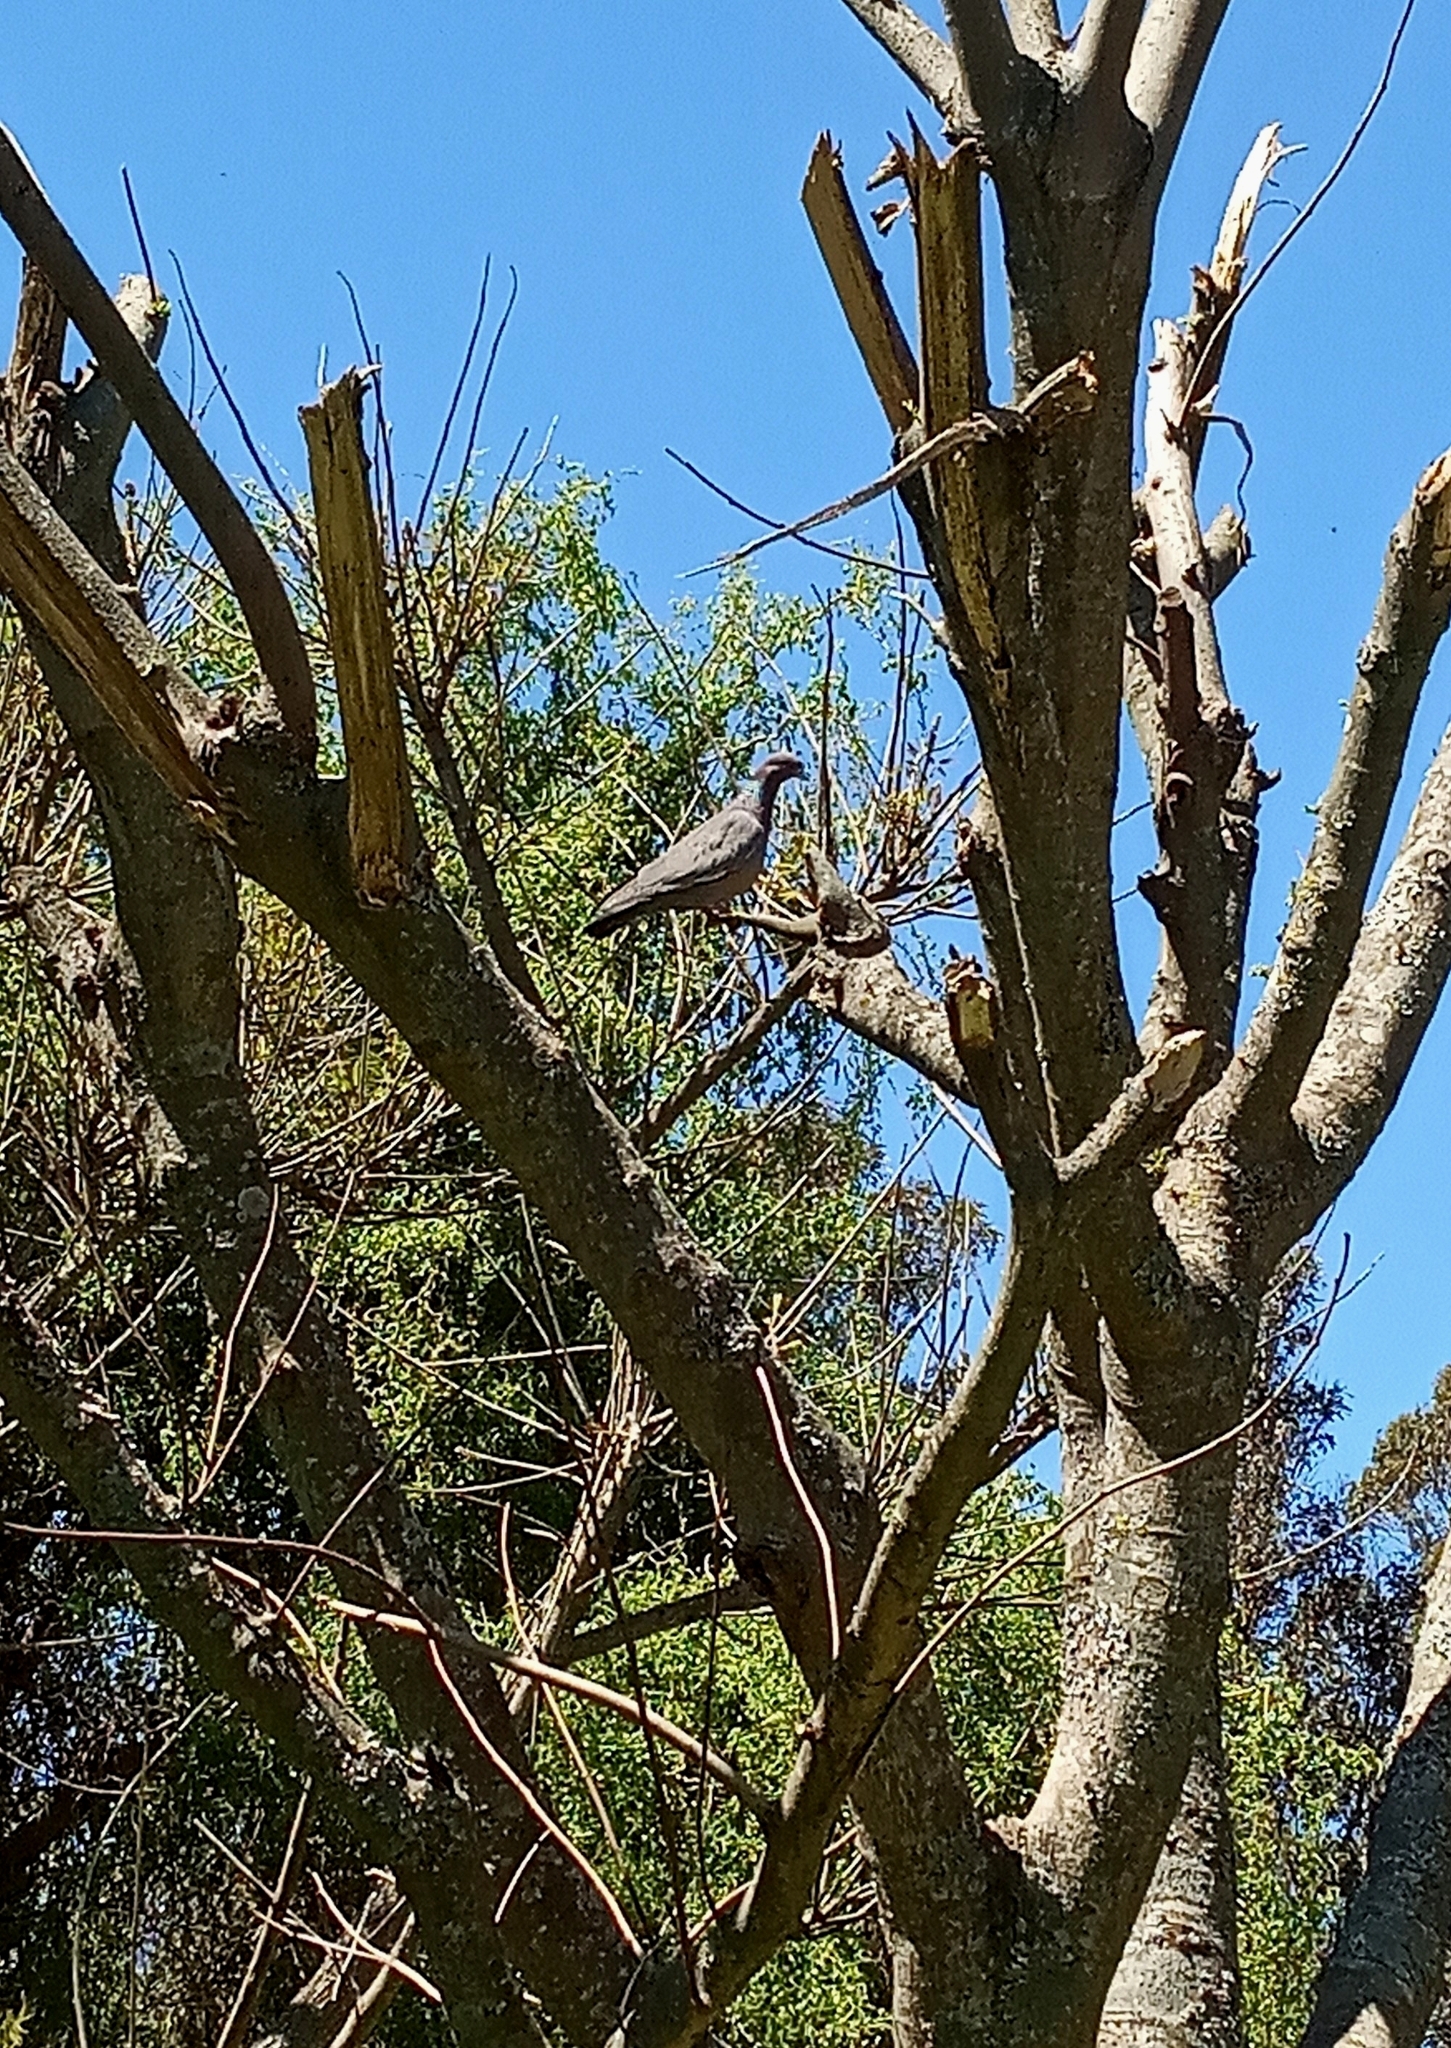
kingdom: Animalia
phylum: Chordata
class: Aves
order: Columbiformes
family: Columbidae
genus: Patagioenas
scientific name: Patagioenas picazuro
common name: Picazuro pigeon
